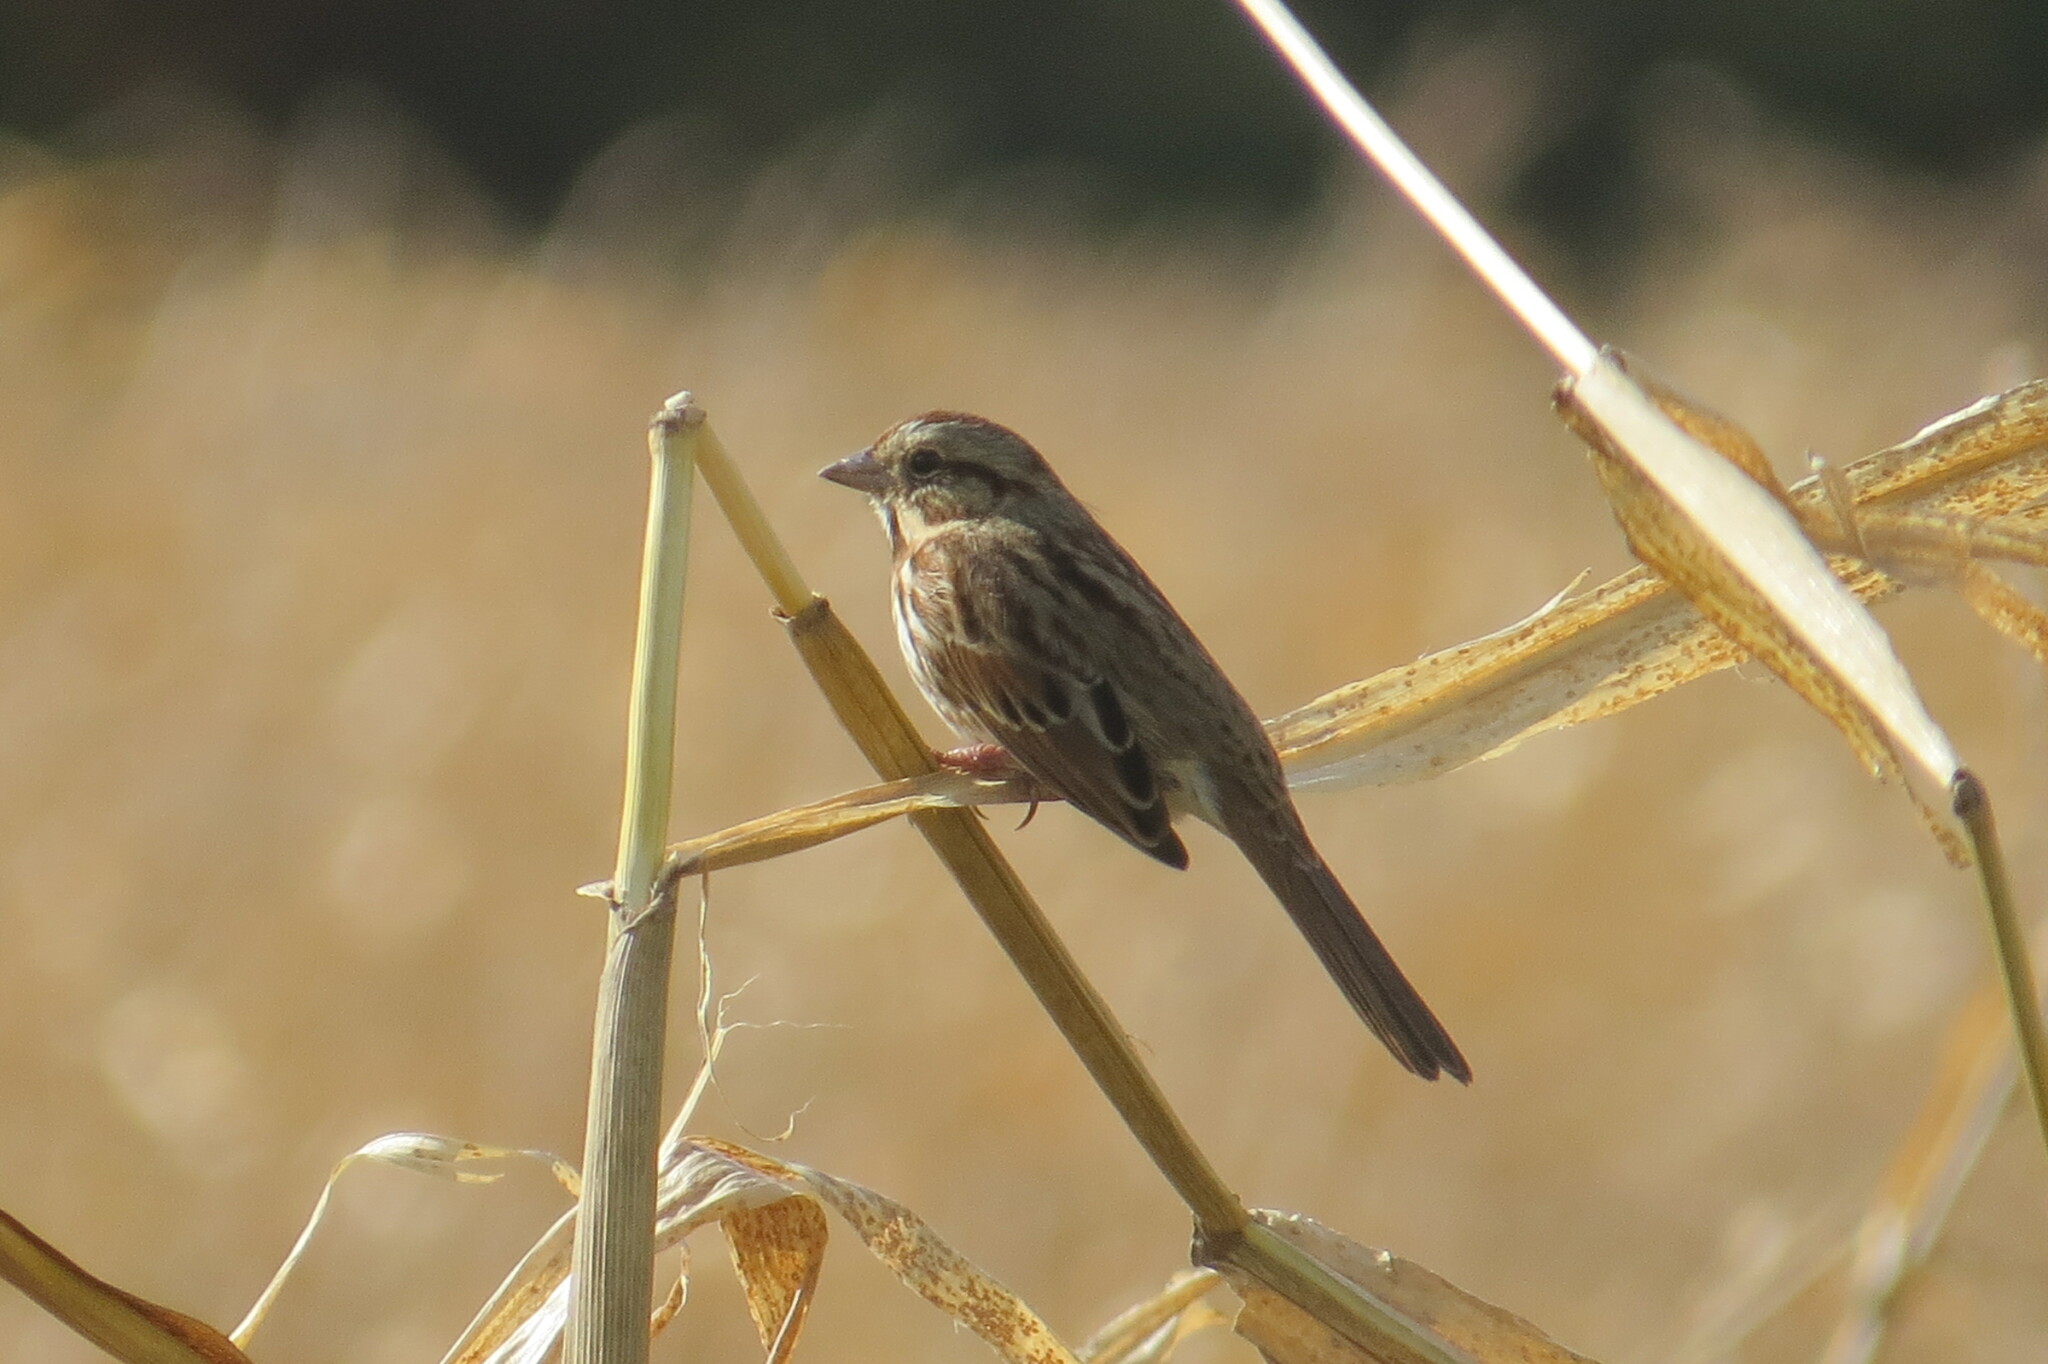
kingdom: Animalia
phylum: Chordata
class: Aves
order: Passeriformes
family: Passerellidae
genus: Melospiza
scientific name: Melospiza melodia
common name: Song sparrow
